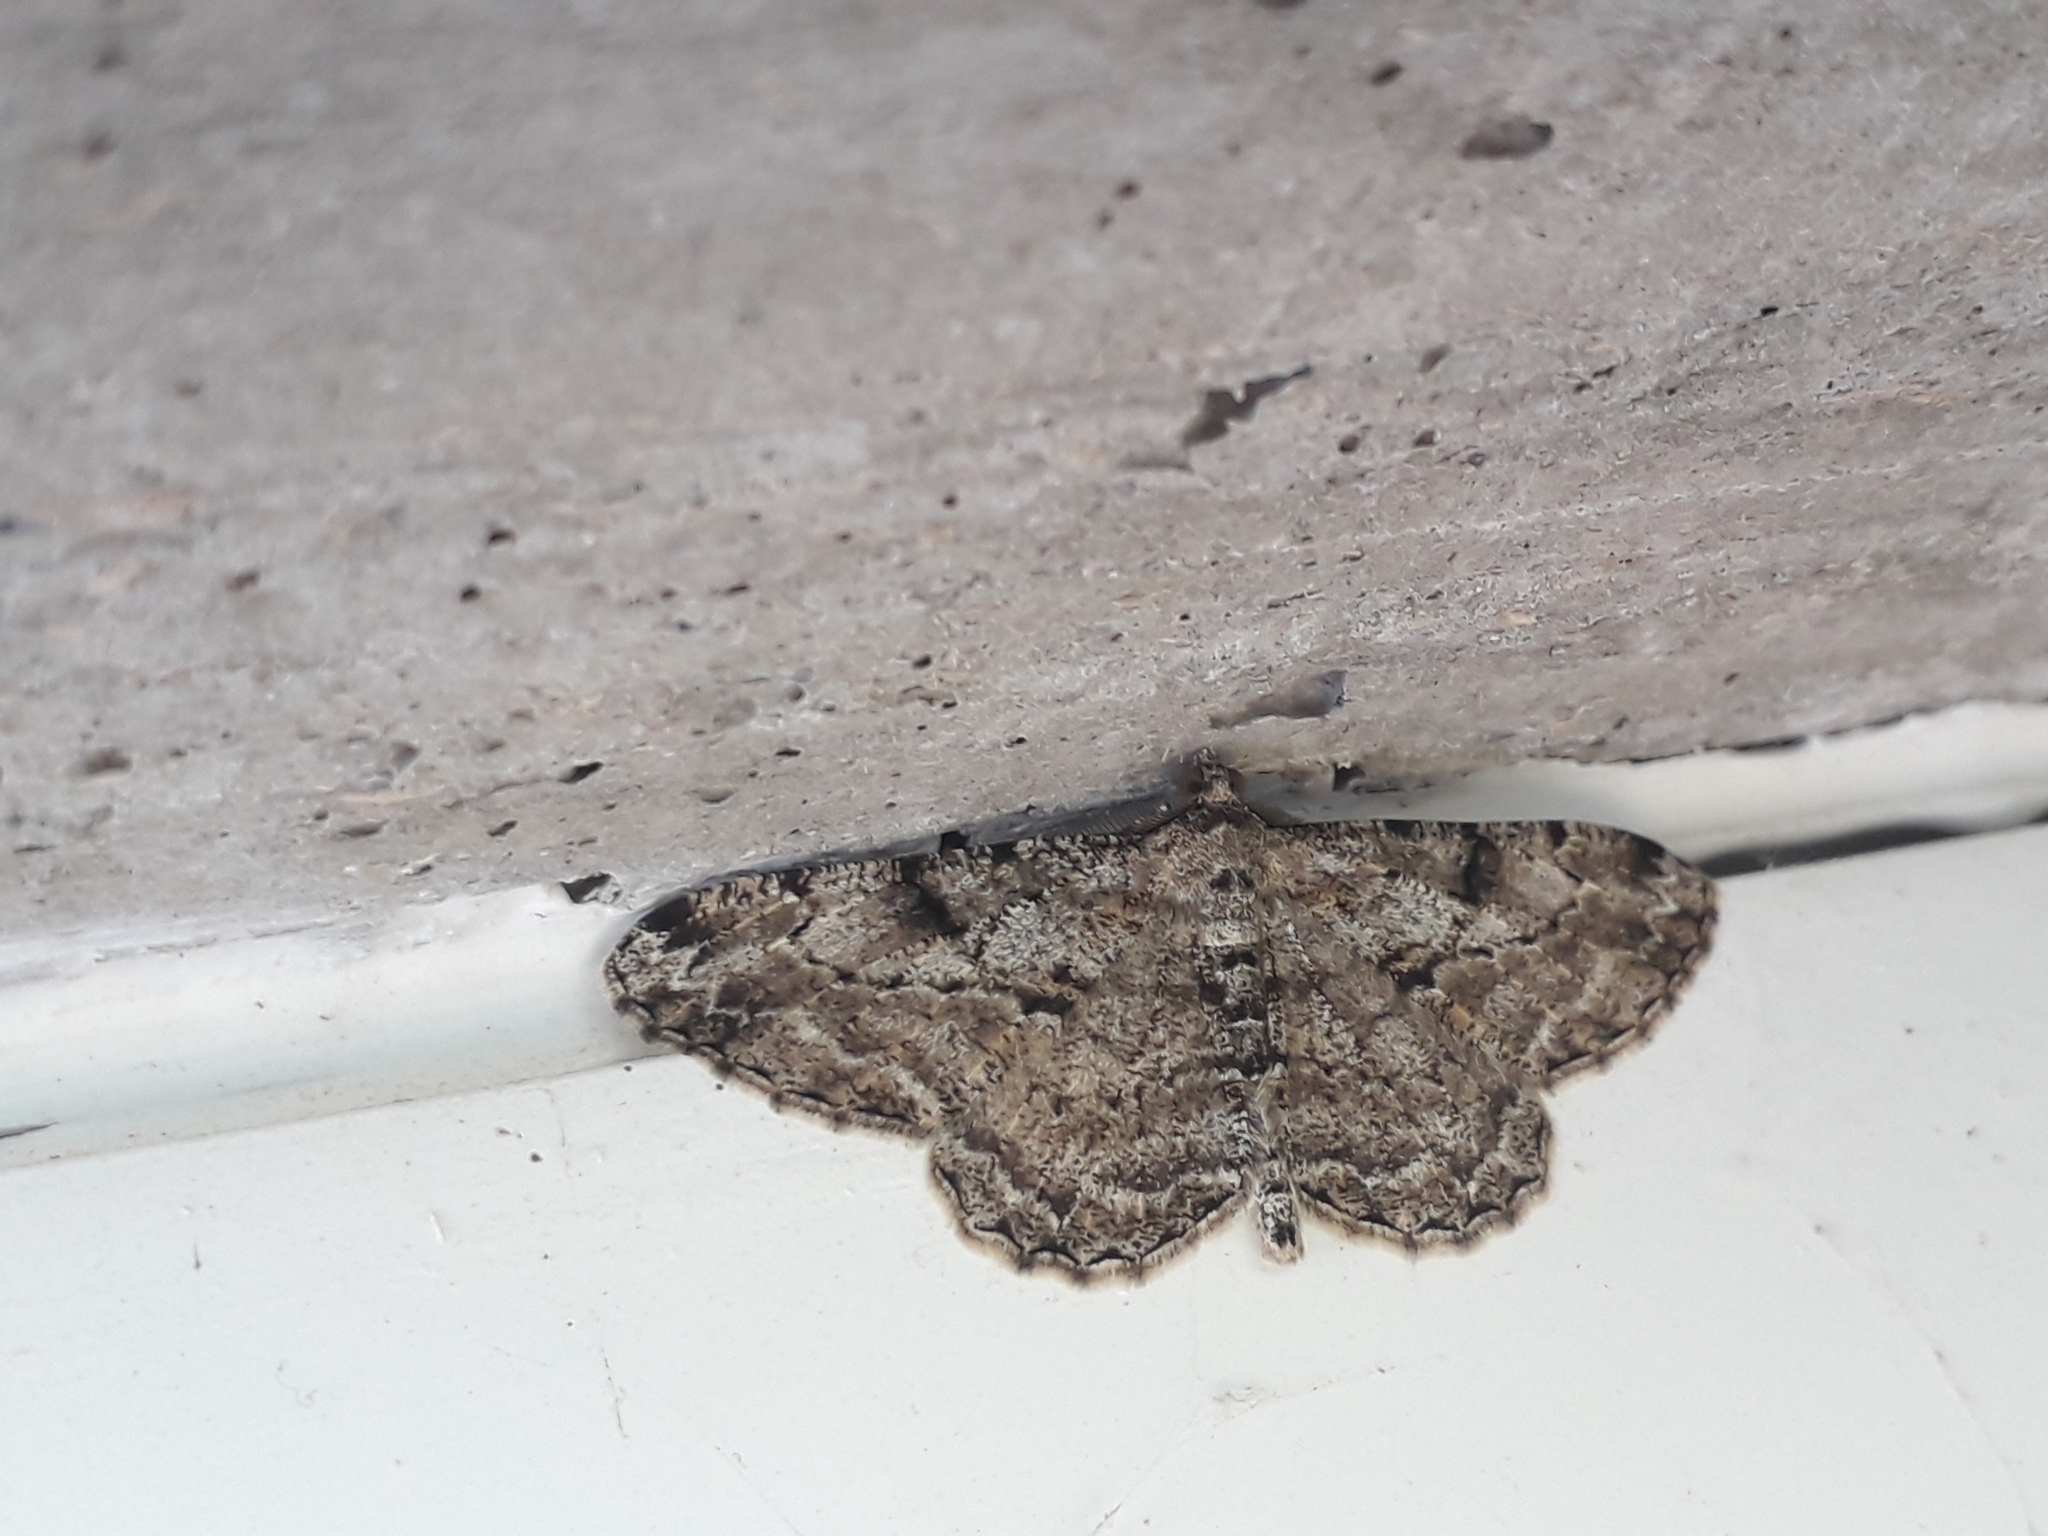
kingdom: Animalia
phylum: Arthropoda
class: Insecta
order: Lepidoptera
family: Geometridae
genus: Peribatodes
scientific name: Peribatodes rhomboidaria
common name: Willow beauty
